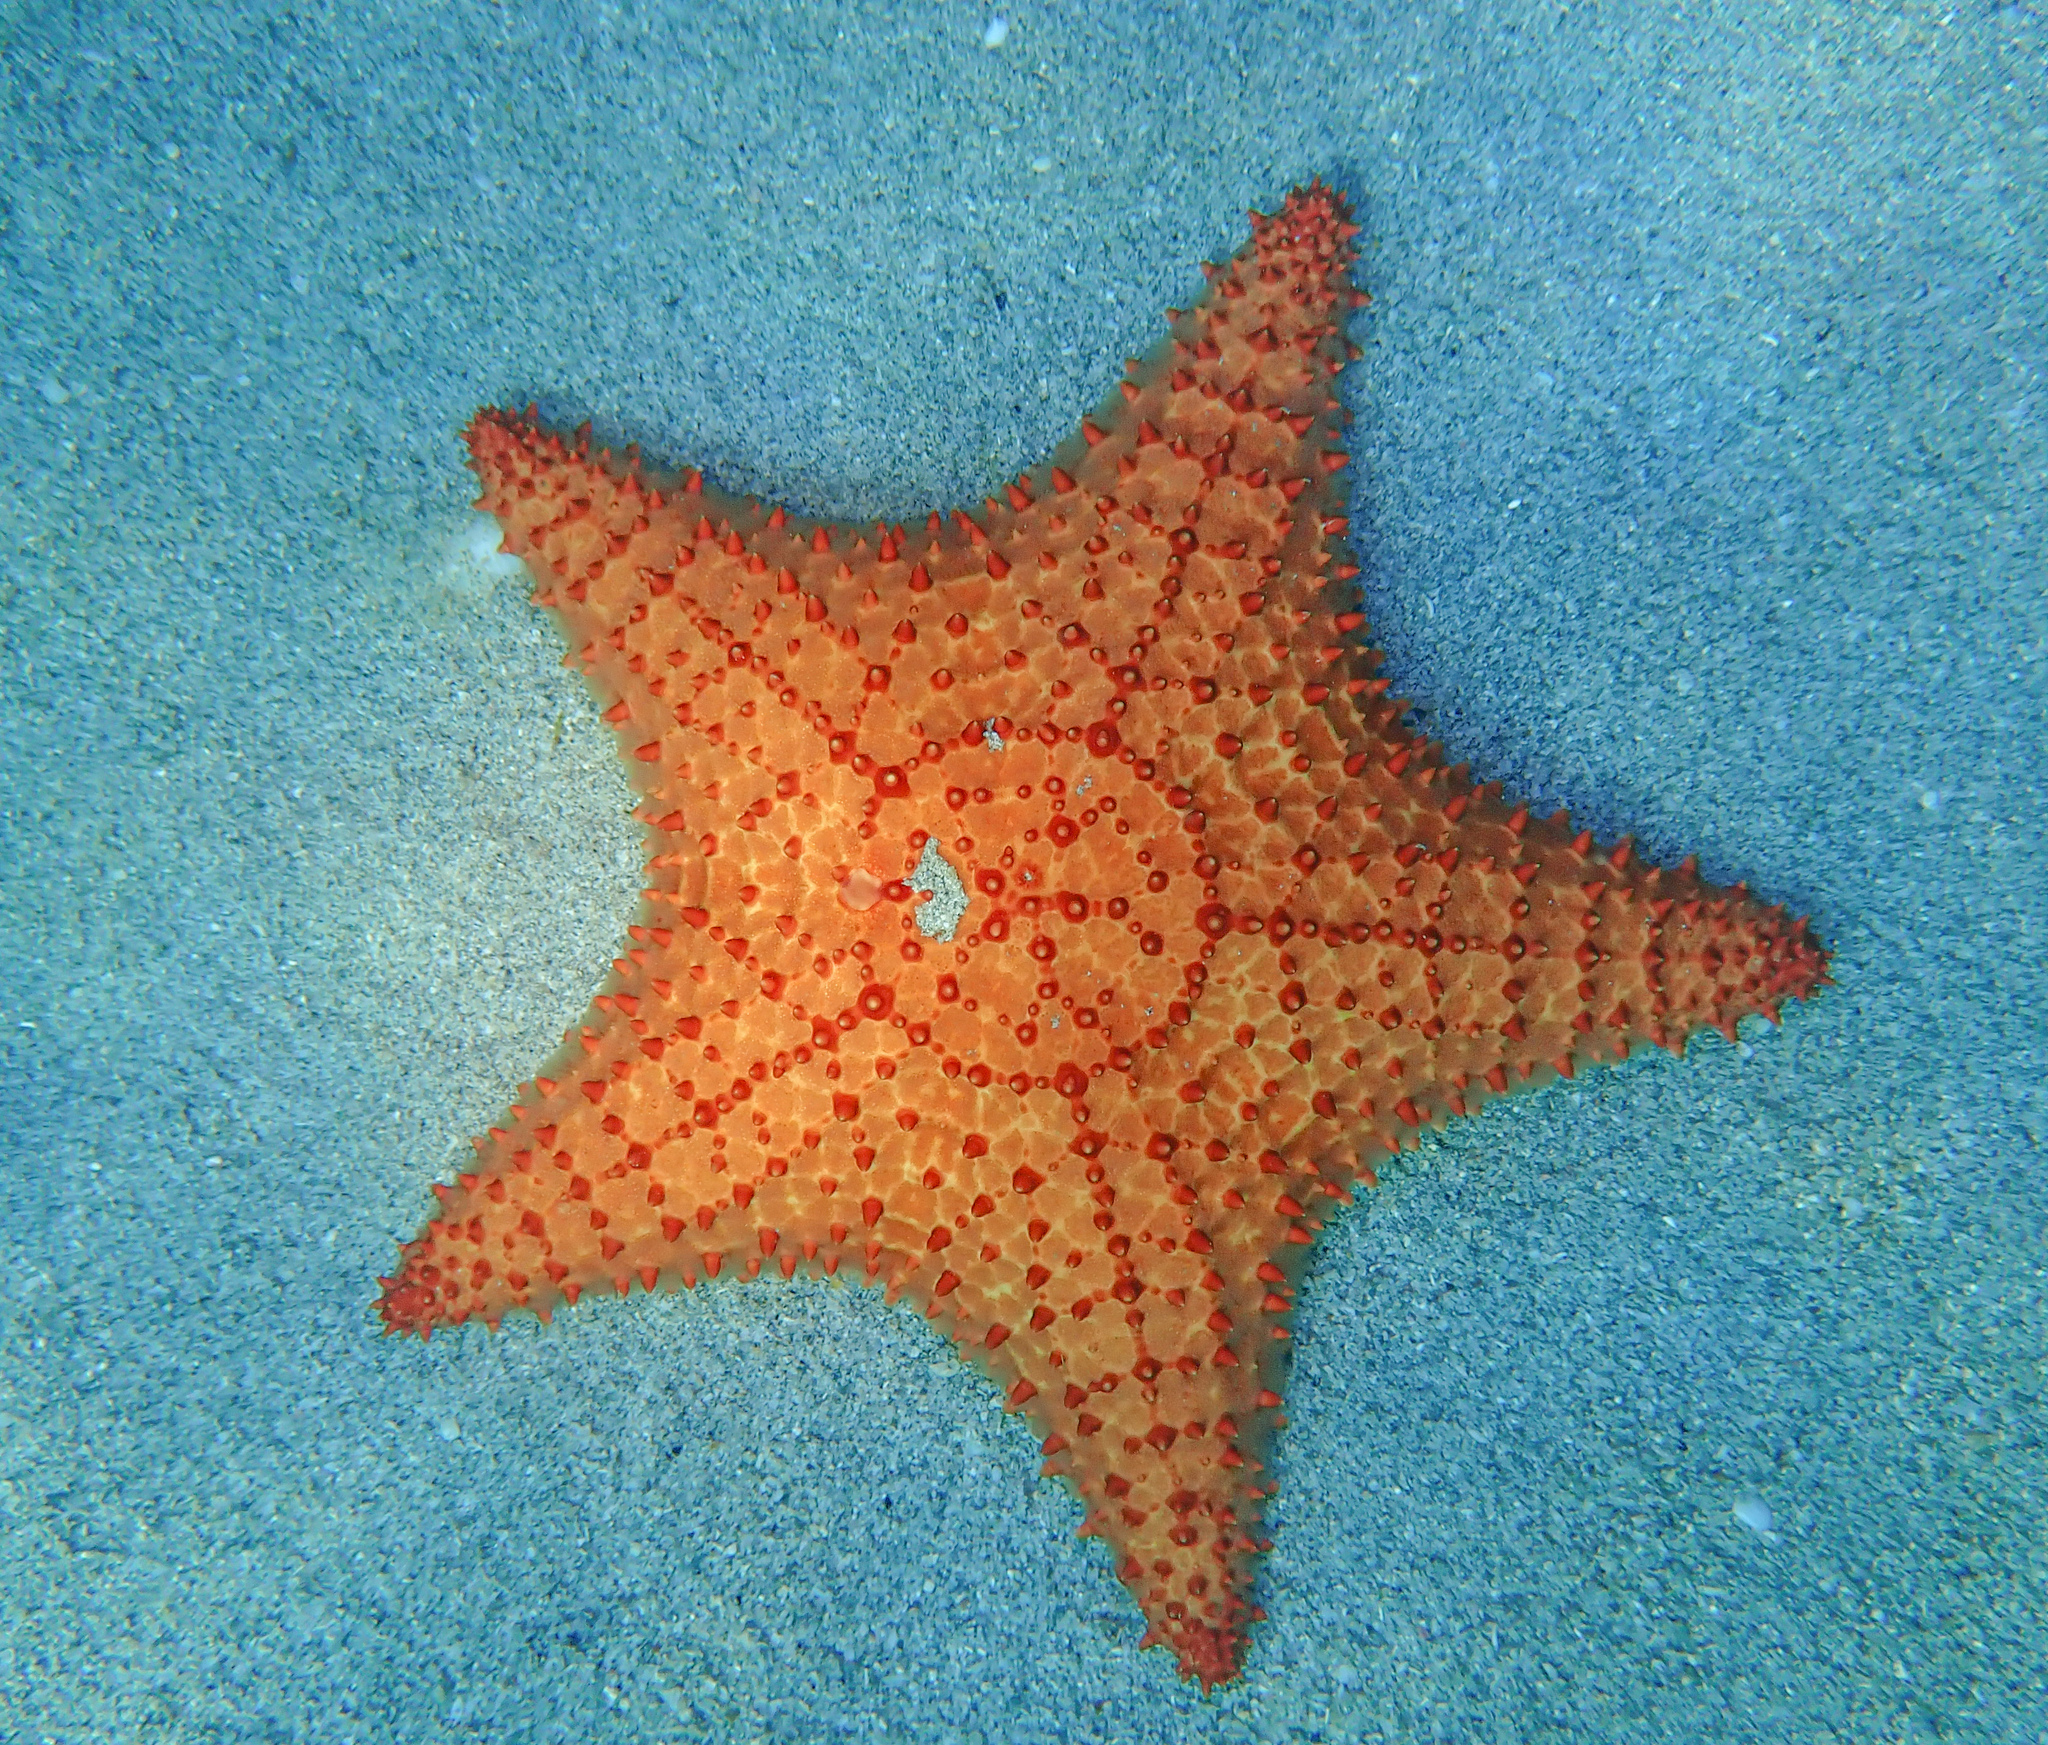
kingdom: Animalia
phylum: Echinodermata
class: Asteroidea
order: Valvatida
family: Oreasteridae
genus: Oreaster
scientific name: Oreaster reticulatus
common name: Cushion sea star
